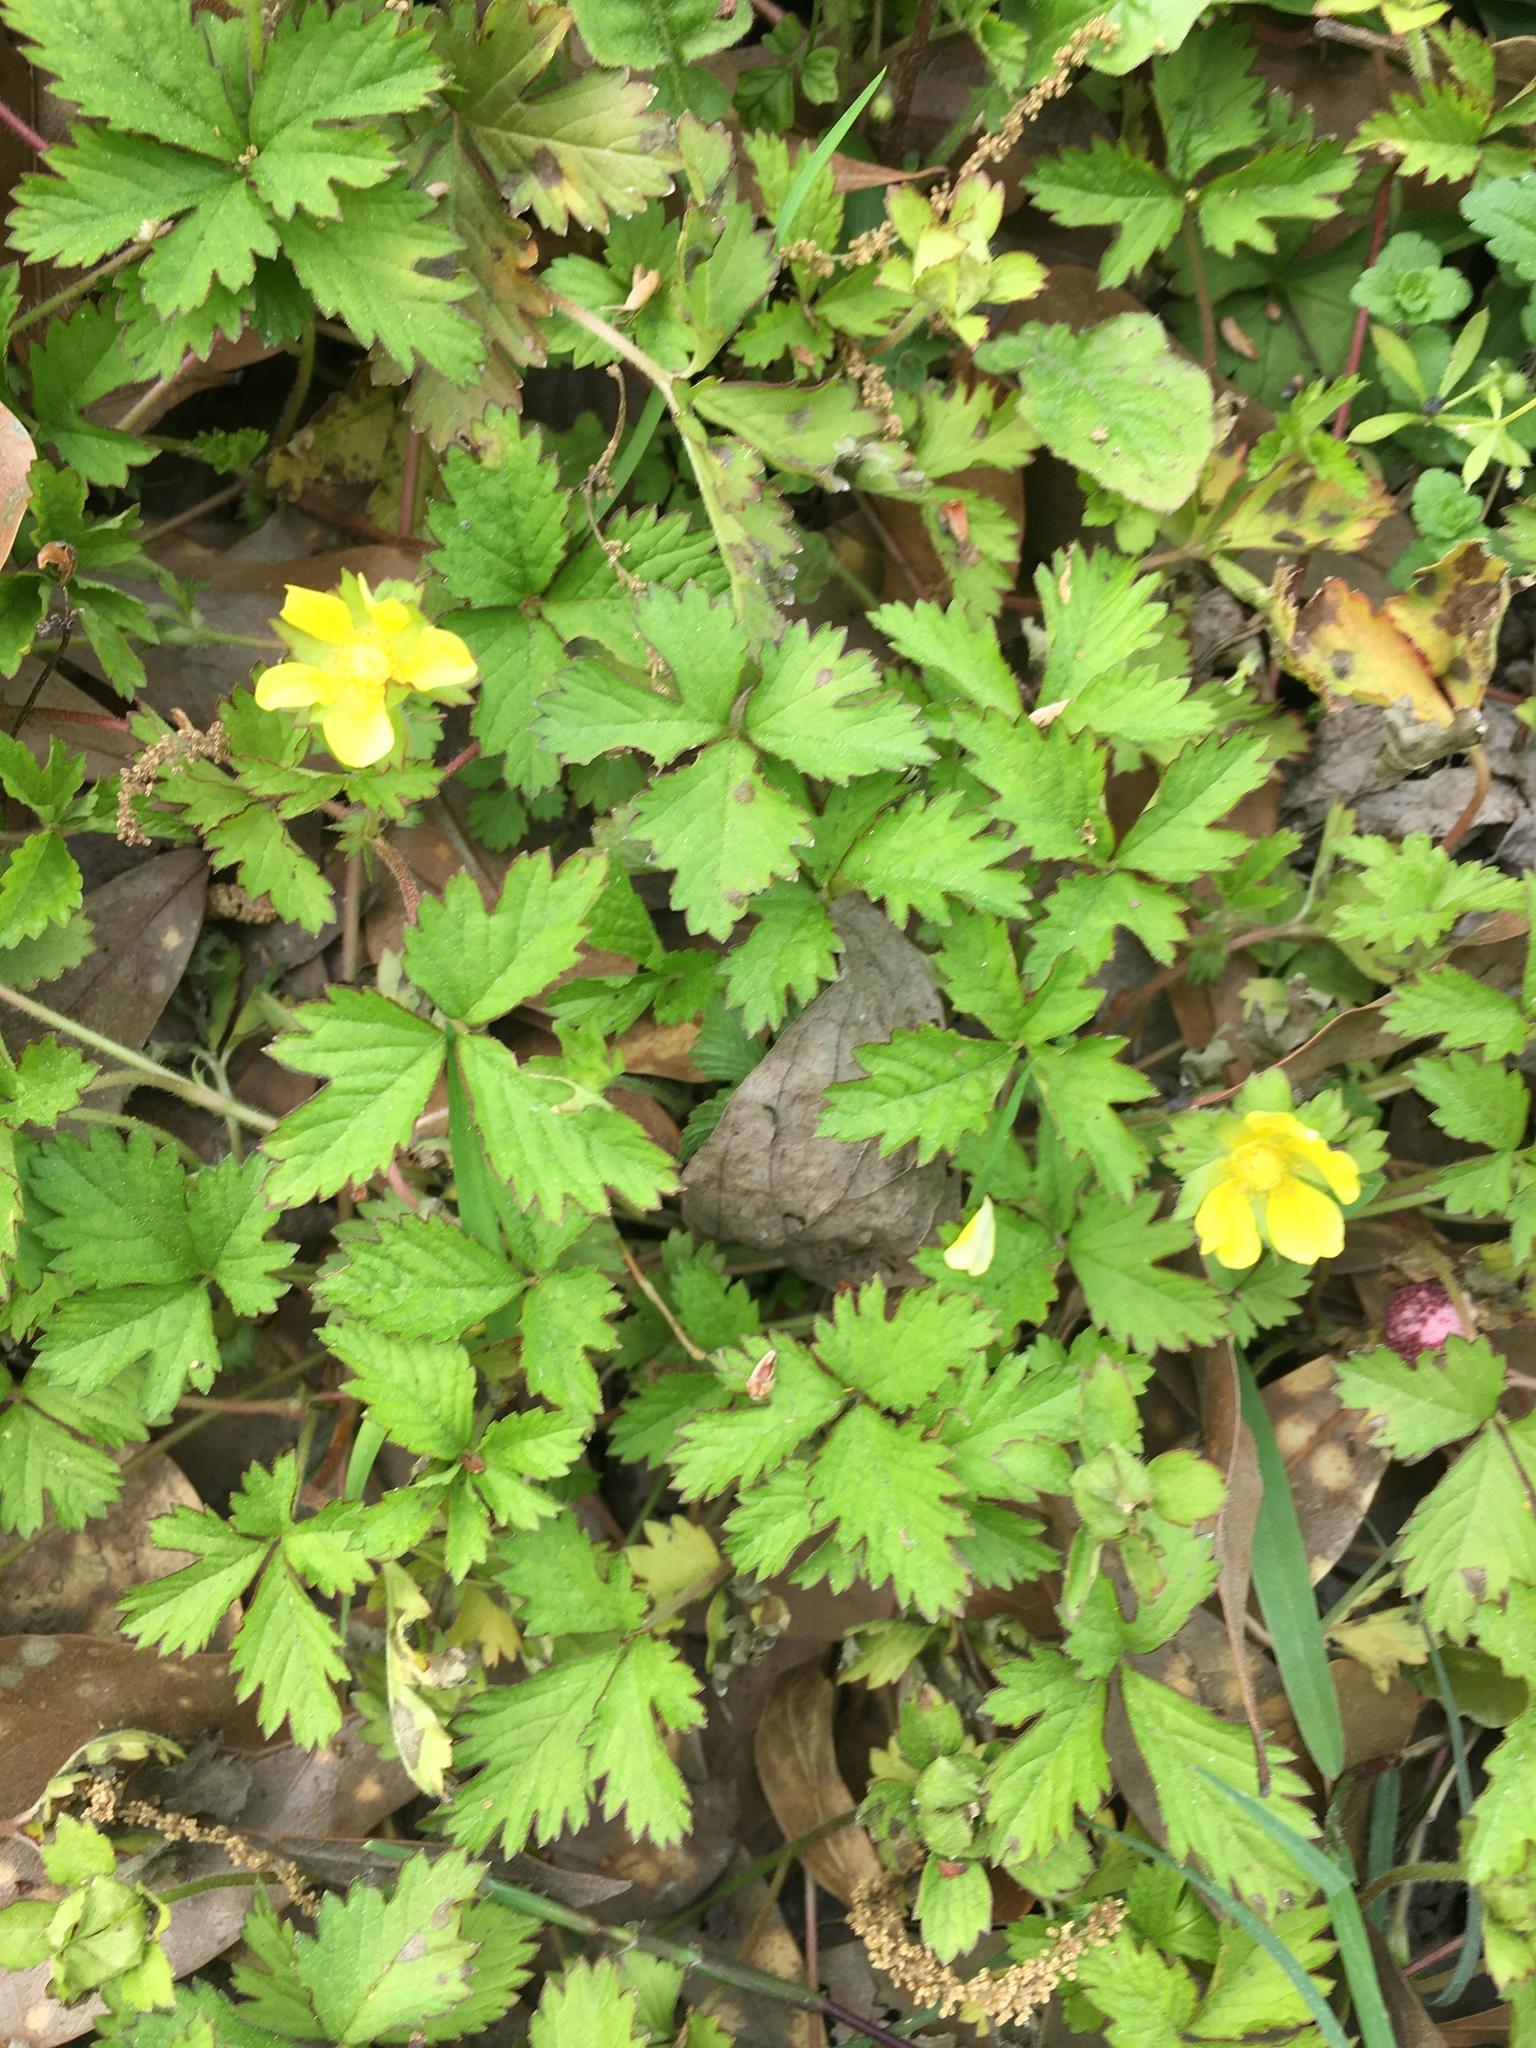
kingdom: Plantae
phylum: Tracheophyta
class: Magnoliopsida
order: Rosales
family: Rosaceae
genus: Potentilla
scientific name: Potentilla indica
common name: Yellow-flowered strawberry
